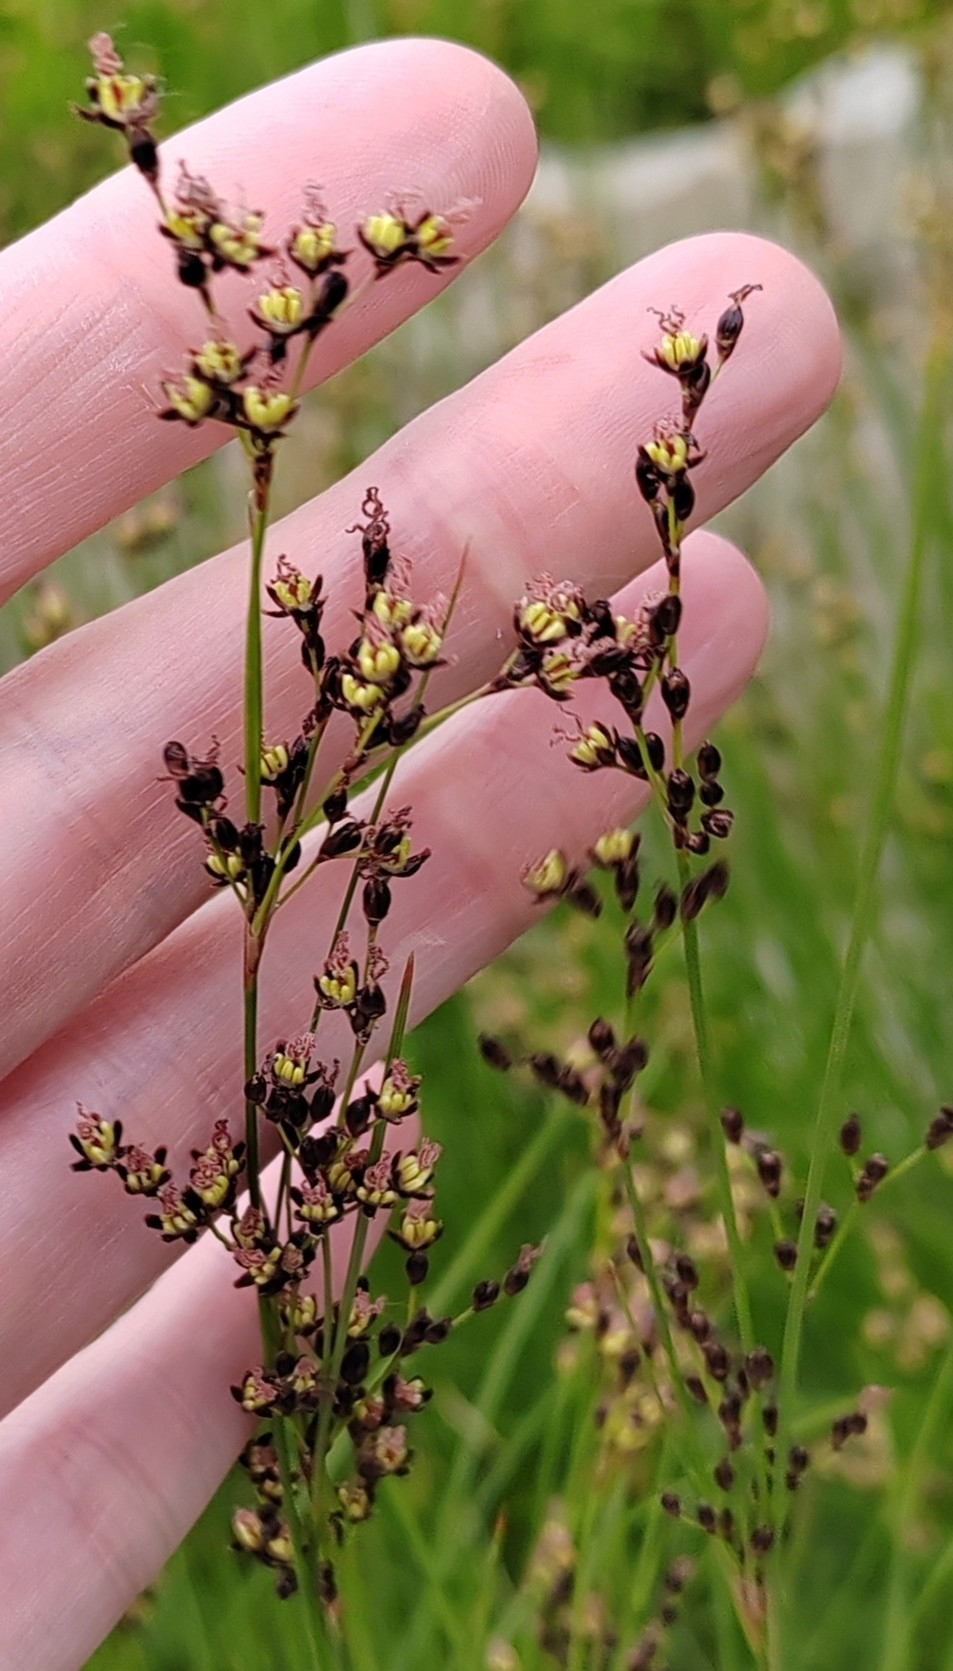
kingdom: Plantae
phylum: Tracheophyta
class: Liliopsida
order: Poales
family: Juncaceae
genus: Juncus
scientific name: Juncus compressus
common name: Round-fruited rush
